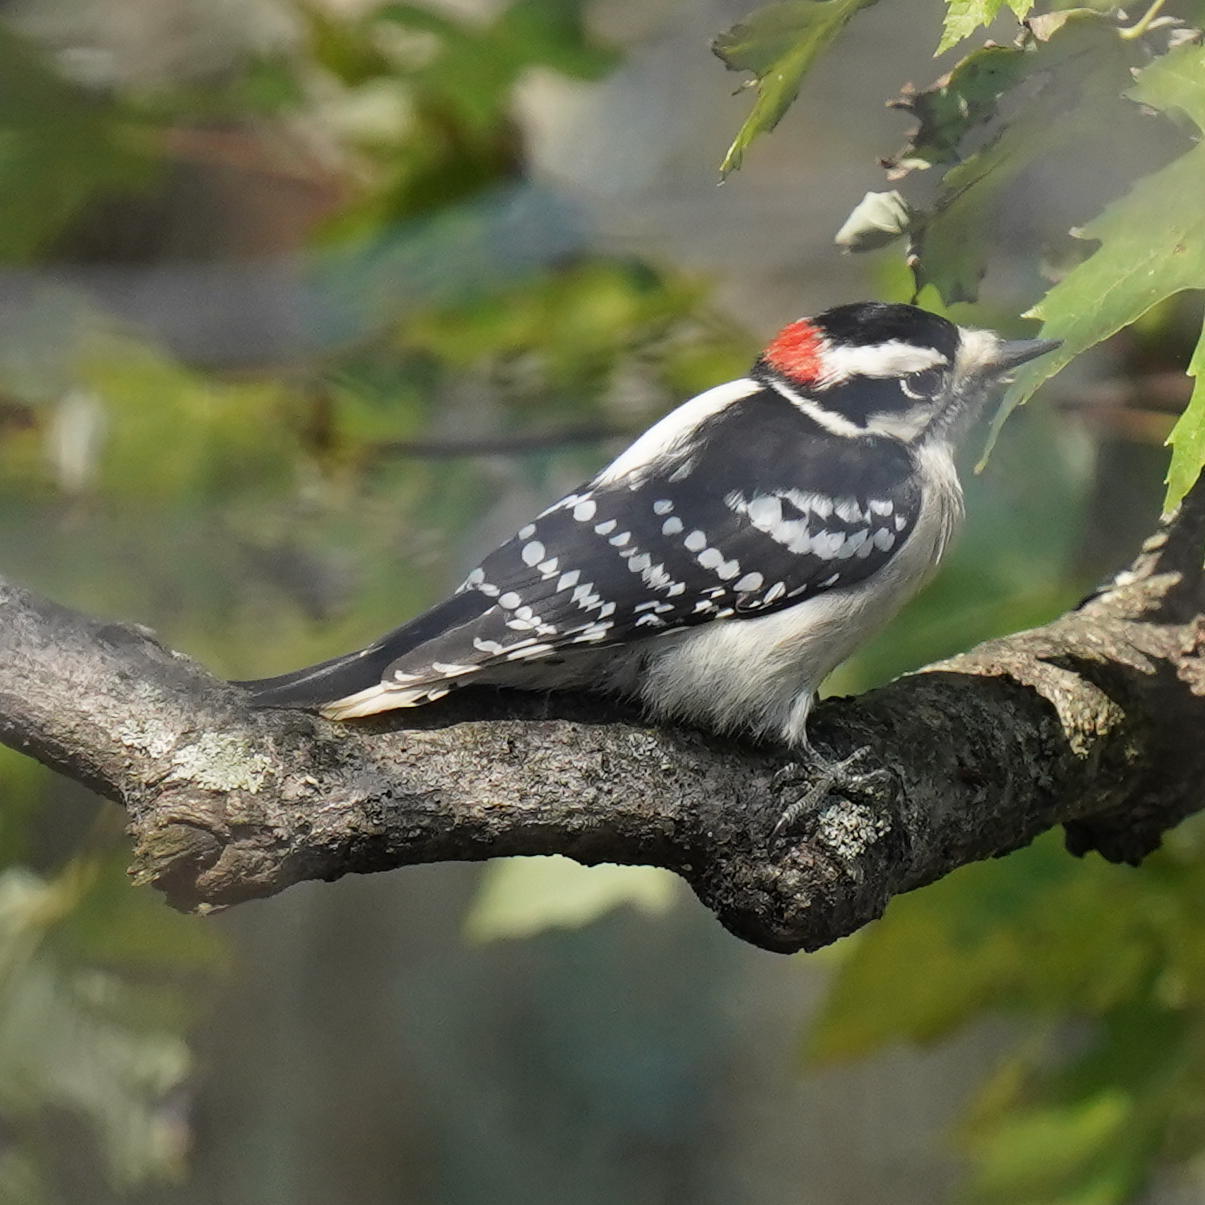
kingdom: Animalia
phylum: Chordata
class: Aves
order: Piciformes
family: Picidae
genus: Dryobates
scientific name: Dryobates pubescens
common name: Downy woodpecker
